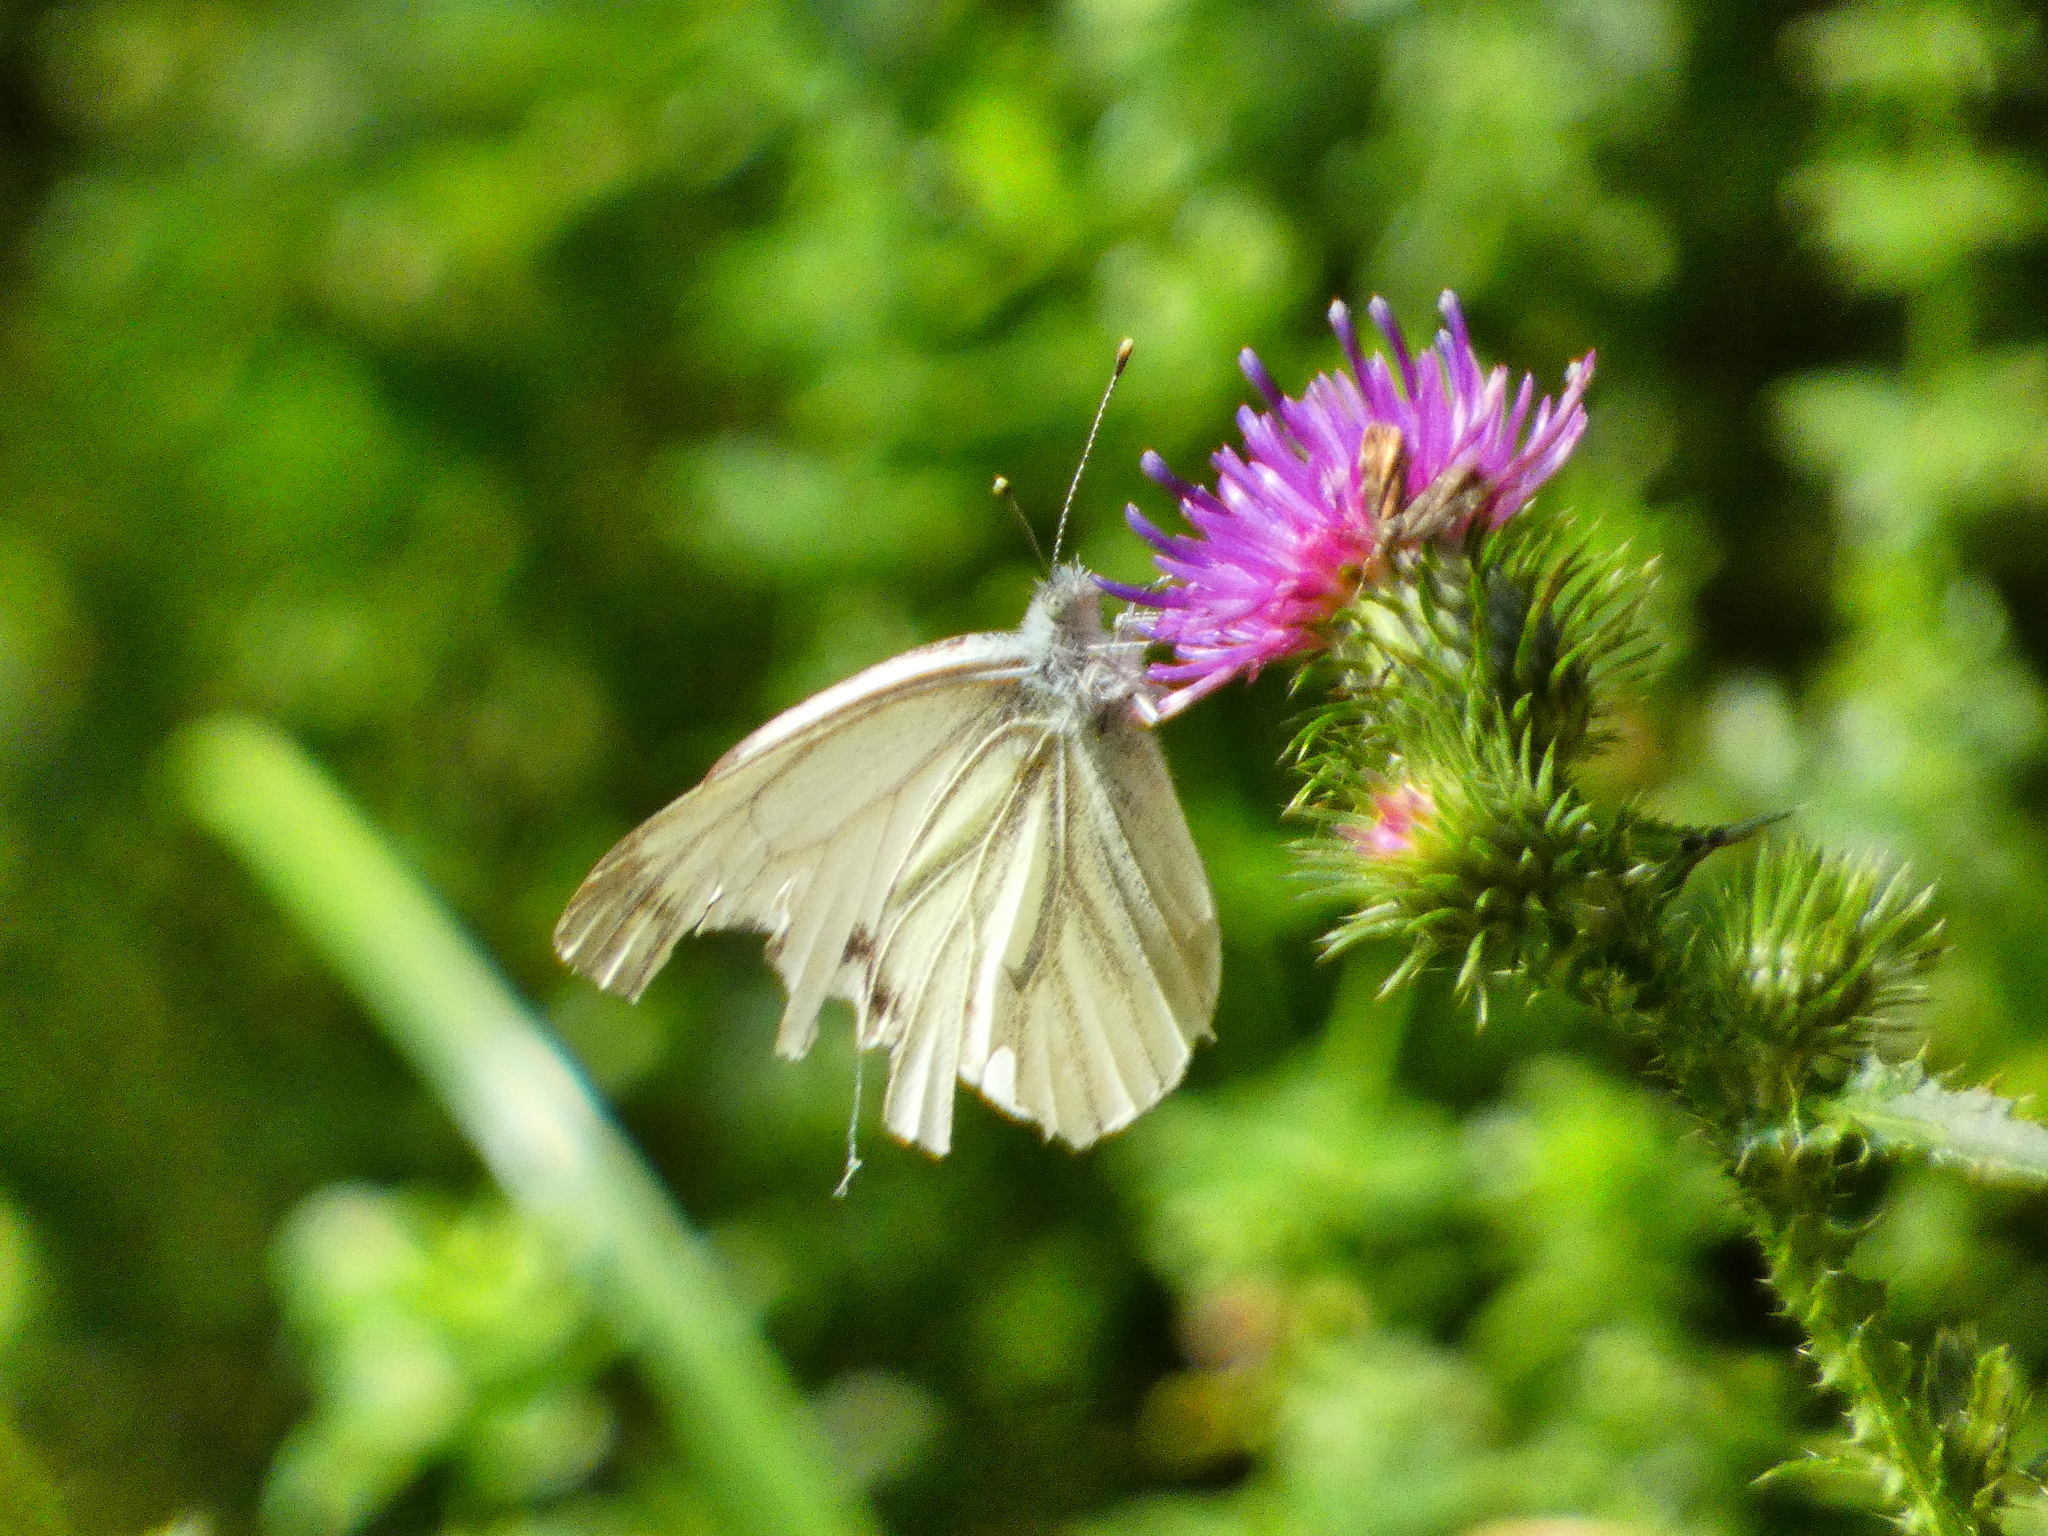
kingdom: Animalia
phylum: Arthropoda
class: Insecta
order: Lepidoptera
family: Pieridae
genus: Pieris
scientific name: Pieris napi
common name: Green-veined white
